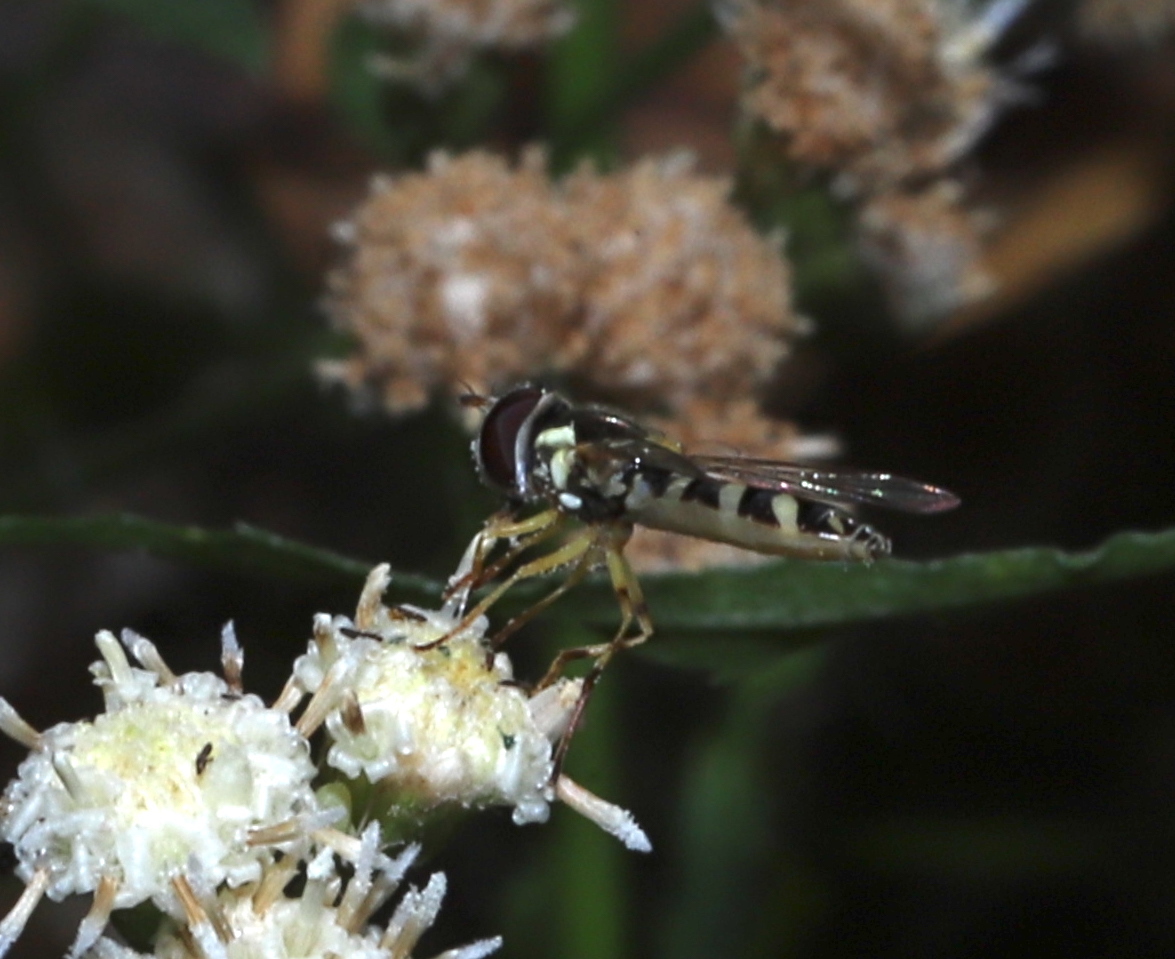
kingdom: Animalia
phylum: Arthropoda
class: Insecta
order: Diptera
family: Syrphidae
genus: Allograpta
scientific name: Allograpta hortensis
